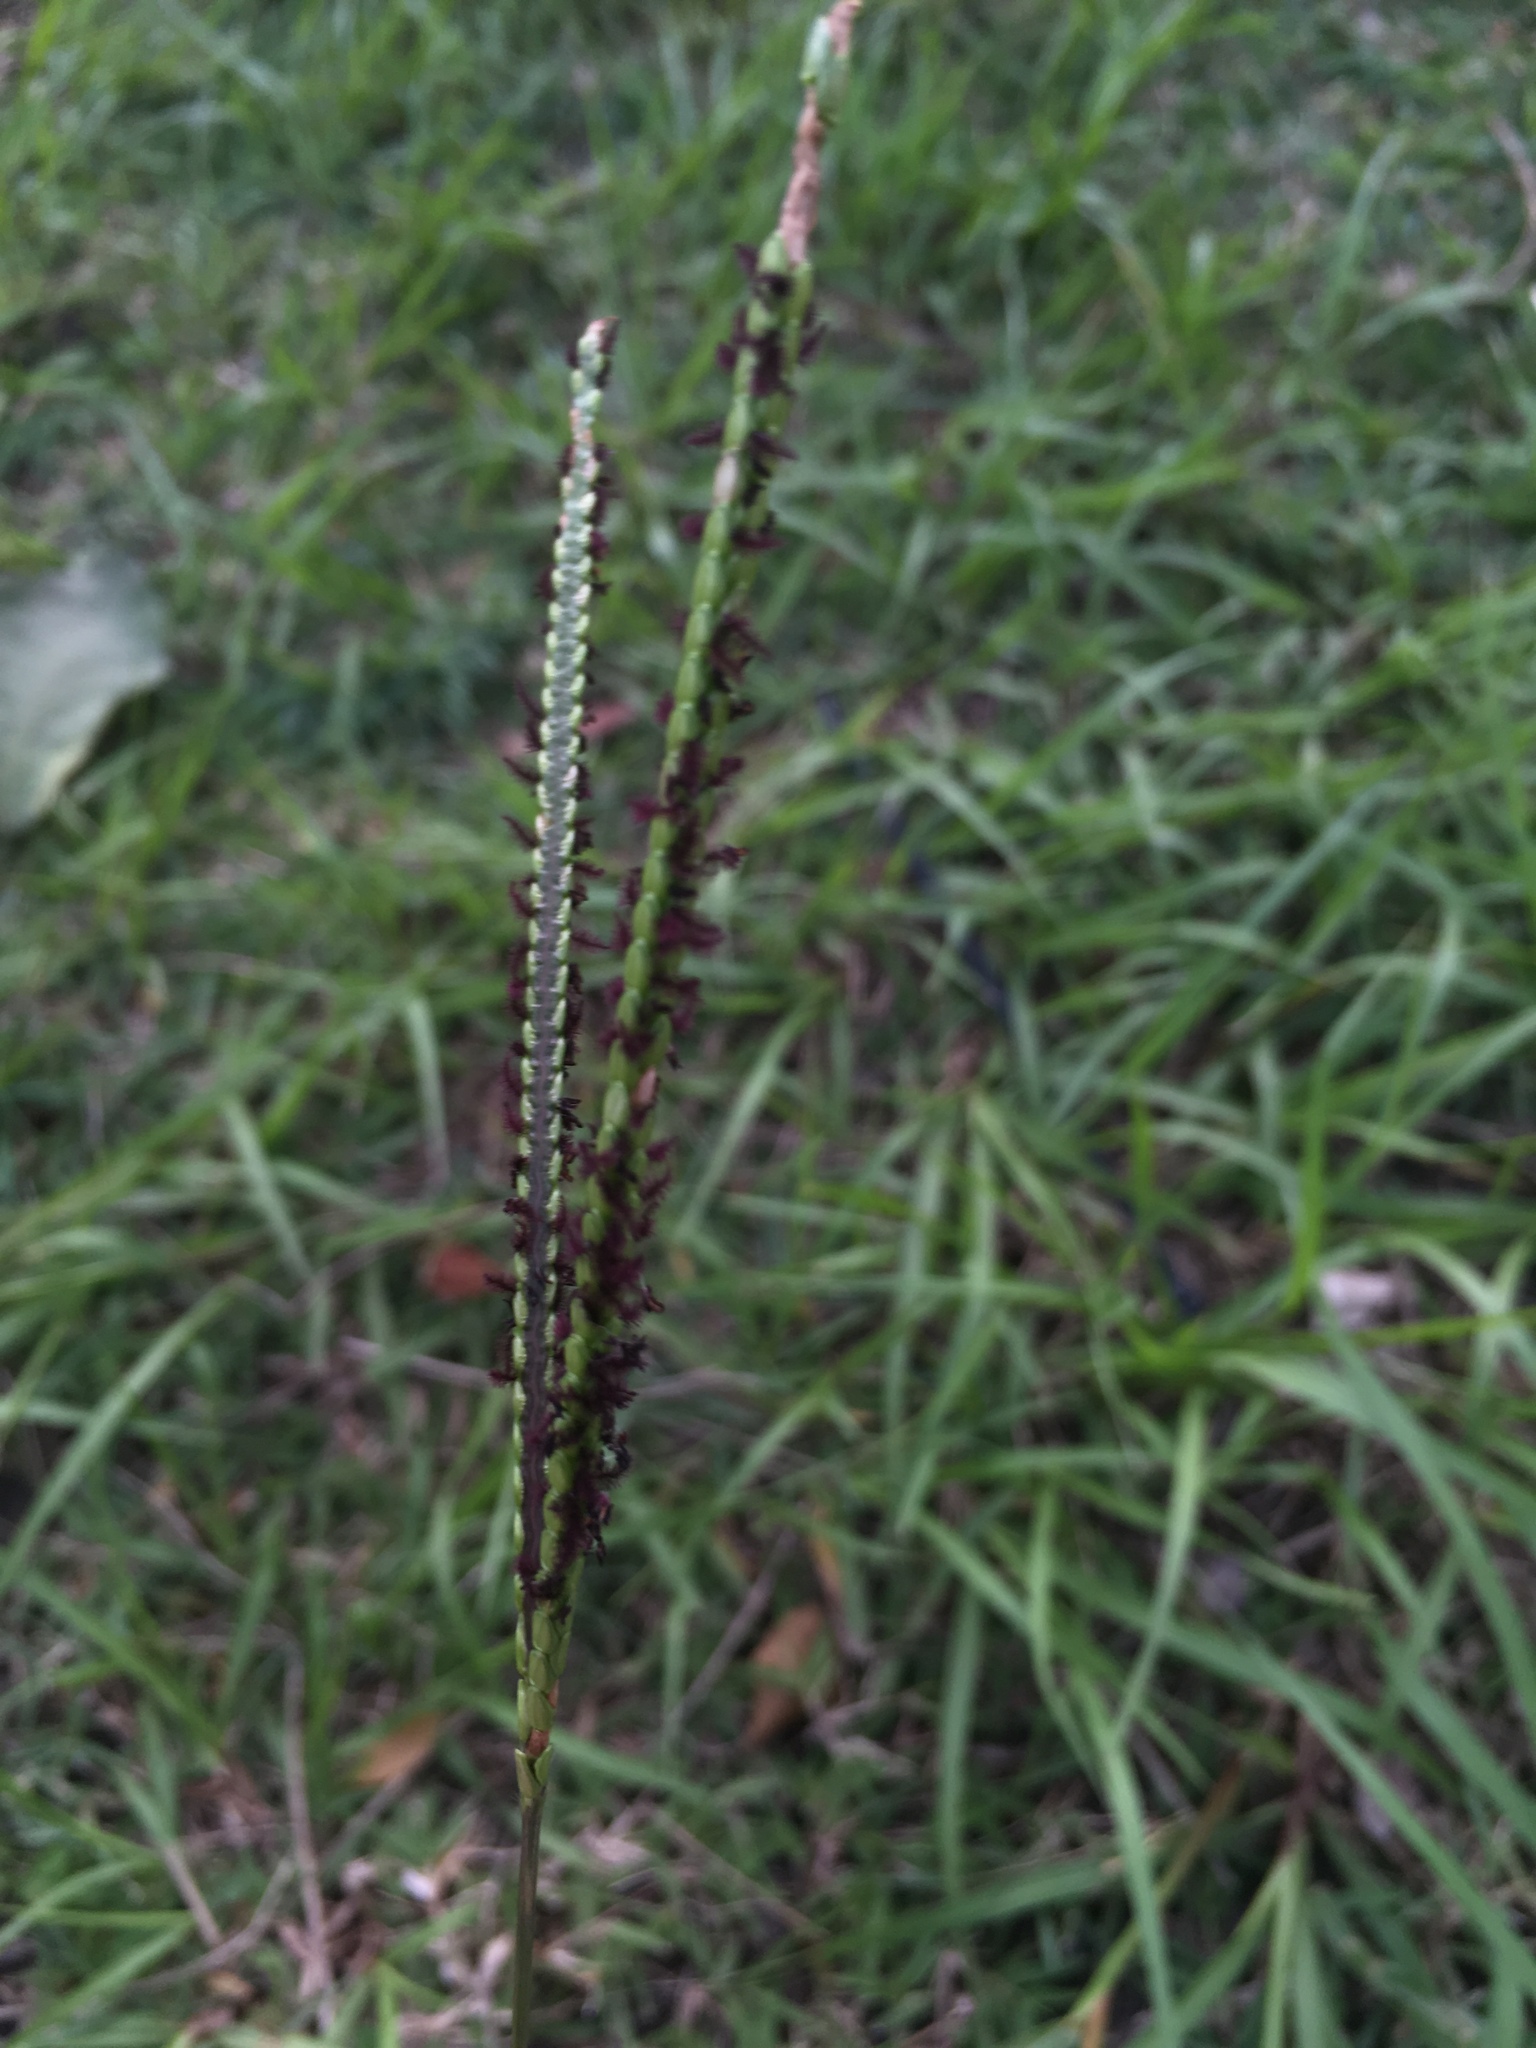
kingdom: Plantae
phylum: Tracheophyta
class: Liliopsida
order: Poales
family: Poaceae
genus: Paspalum
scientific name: Paspalum notatum
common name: Bahiagrass
